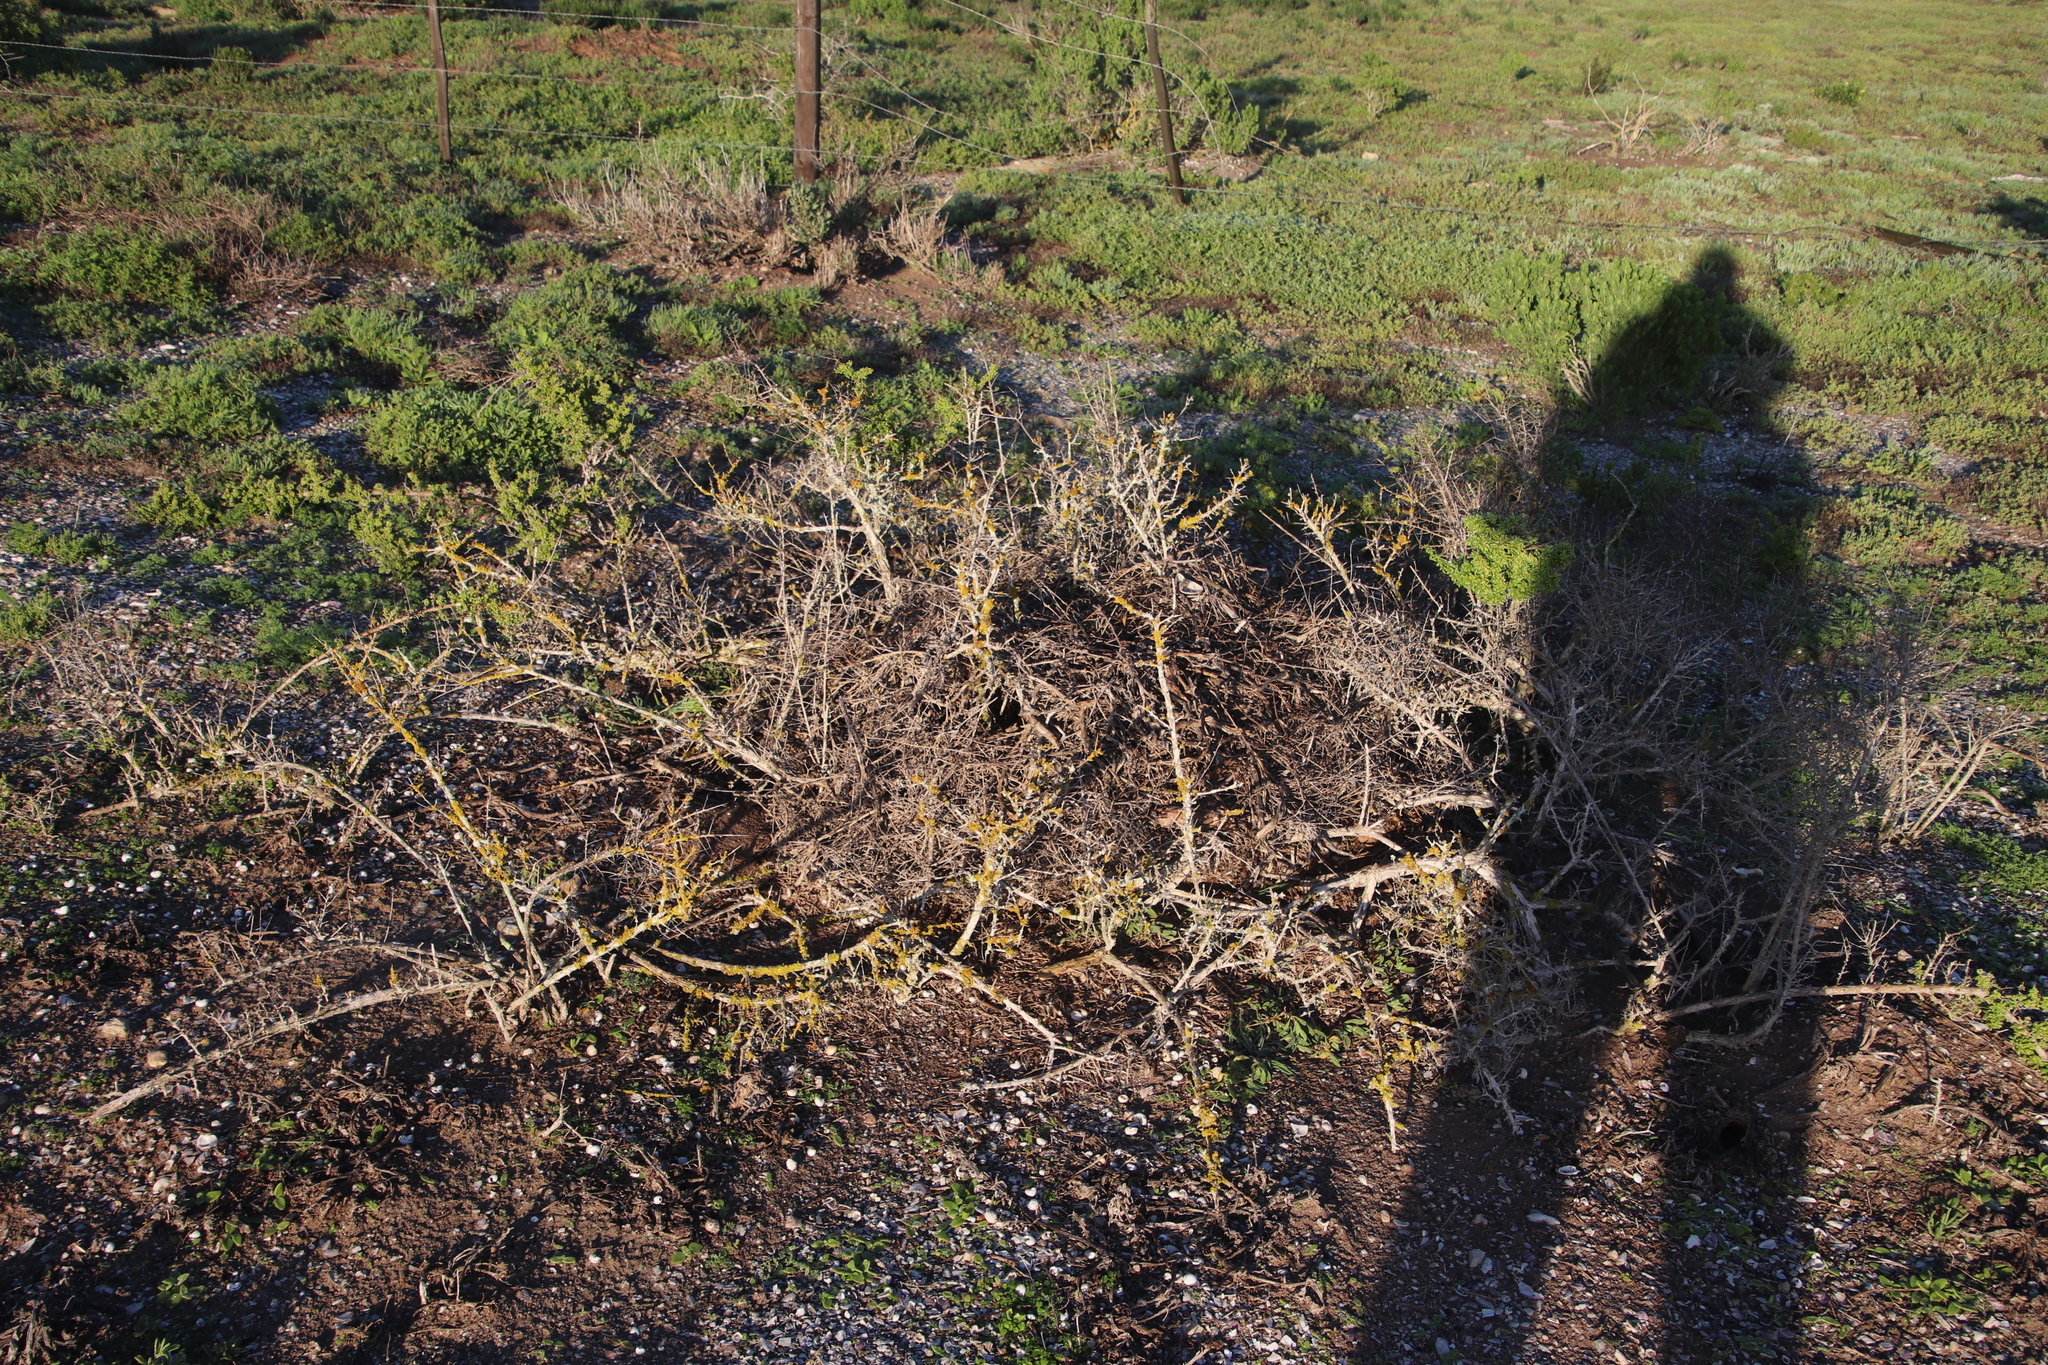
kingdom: Animalia
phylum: Chordata
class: Mammalia
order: Rodentia
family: Muridae
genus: Myotomys
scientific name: Myotomys unisulcatus
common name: Bush karroo rat
